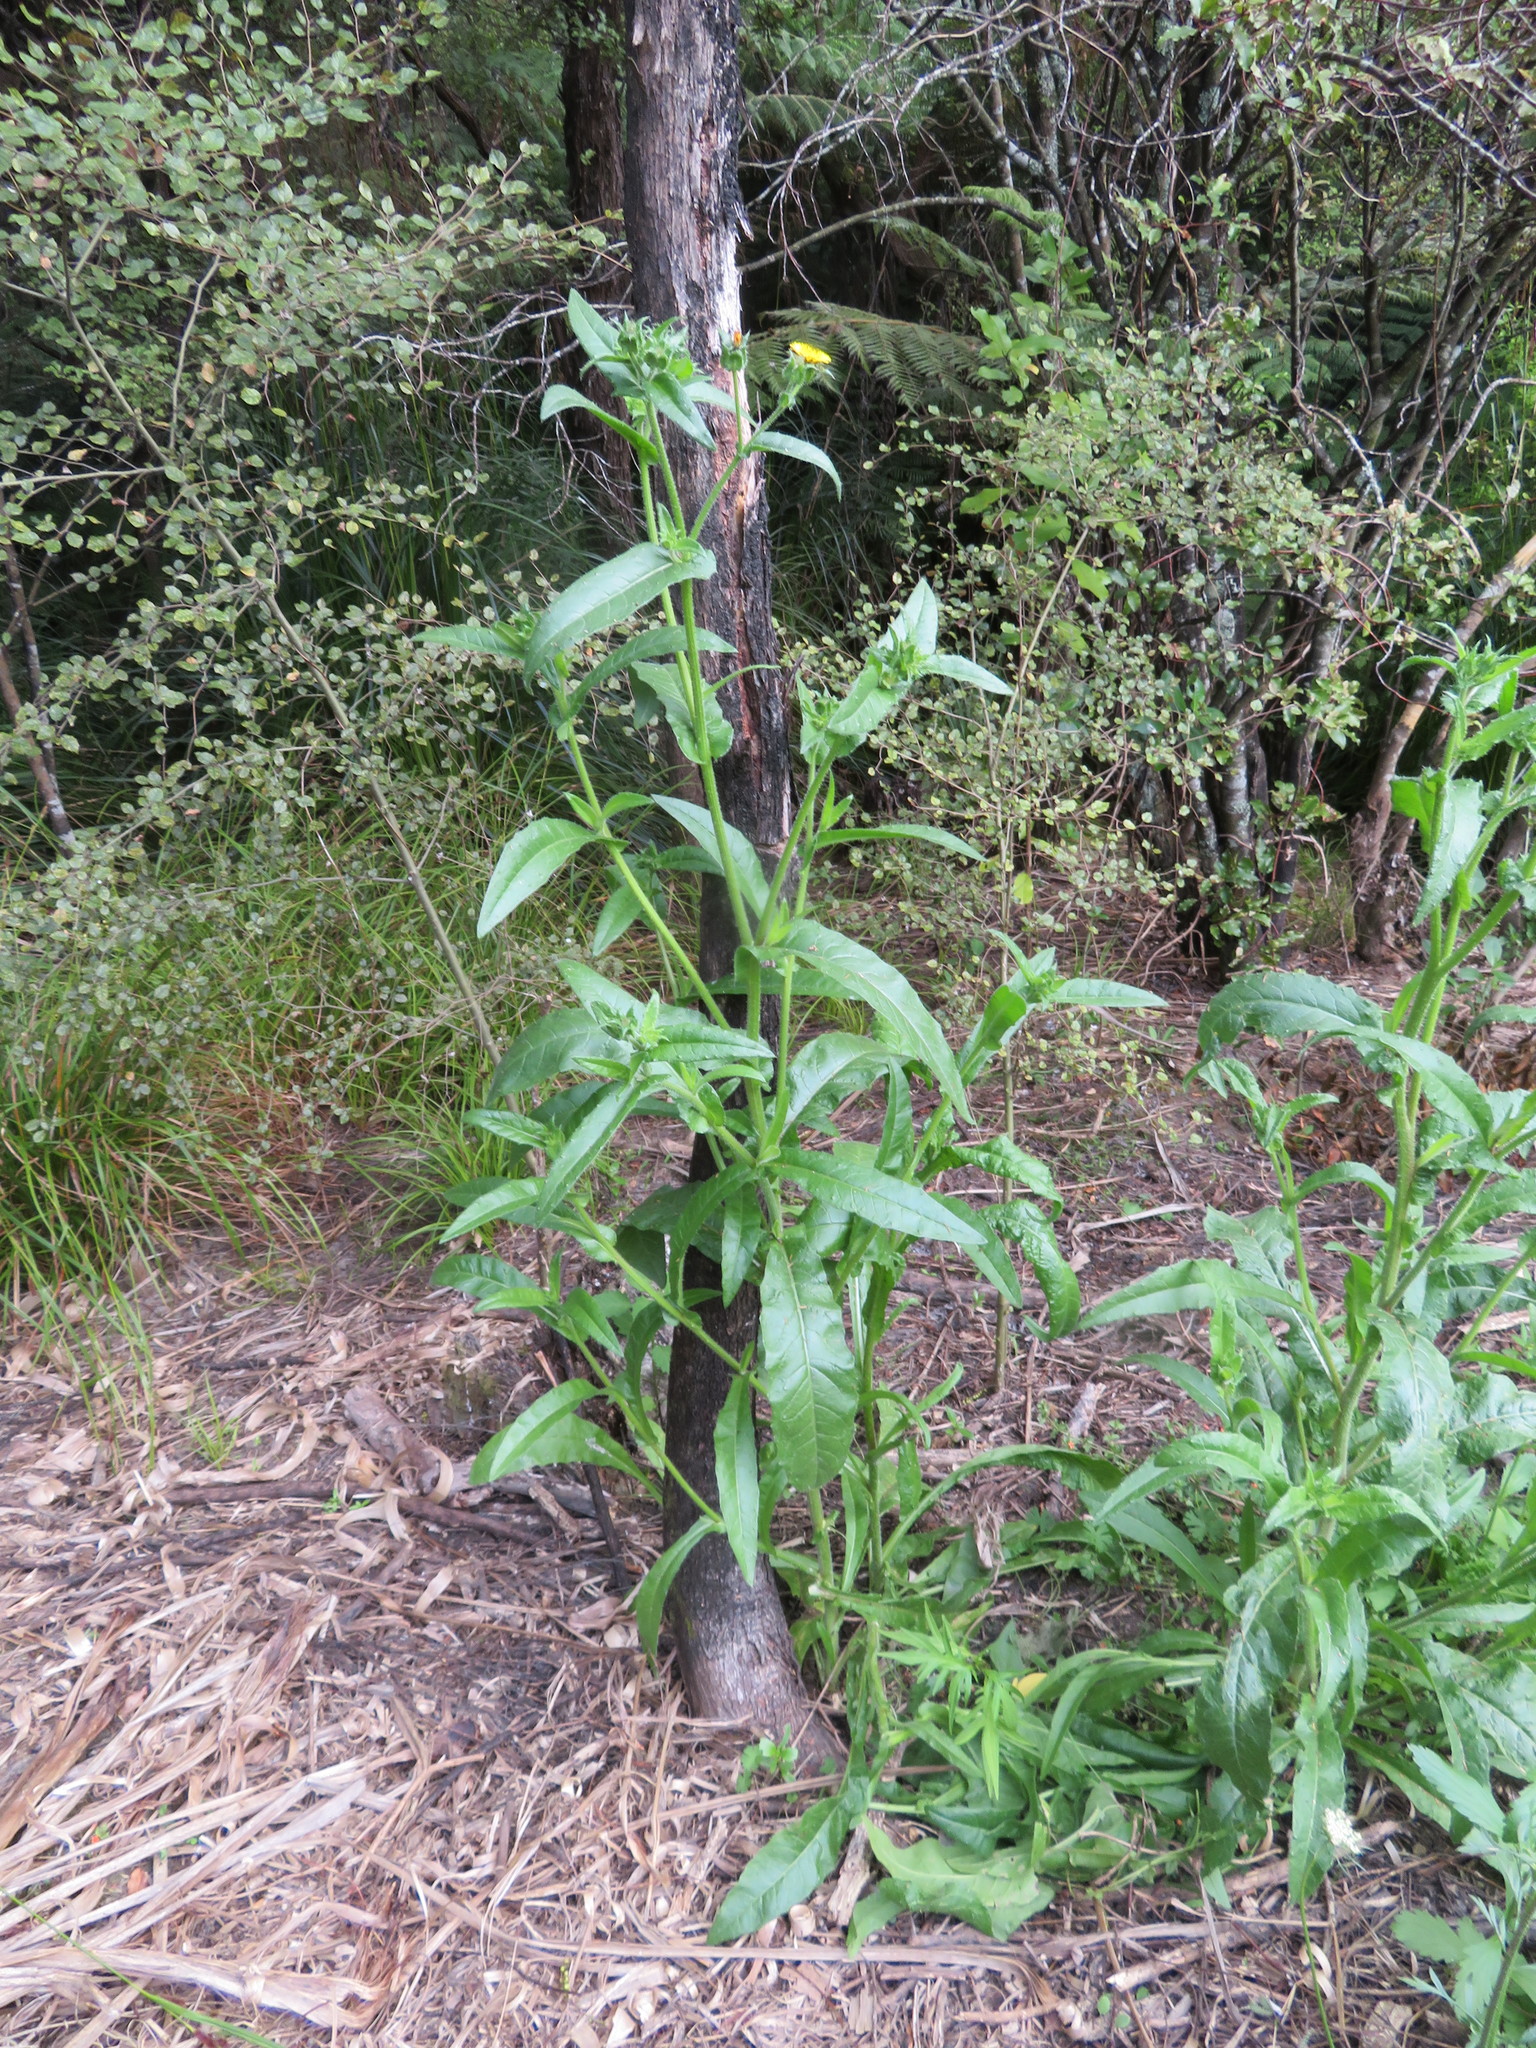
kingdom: Plantae
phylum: Tracheophyta
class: Magnoliopsida
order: Asterales
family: Asteraceae
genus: Helminthotheca
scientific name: Helminthotheca echioides
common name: Ox-tongue
